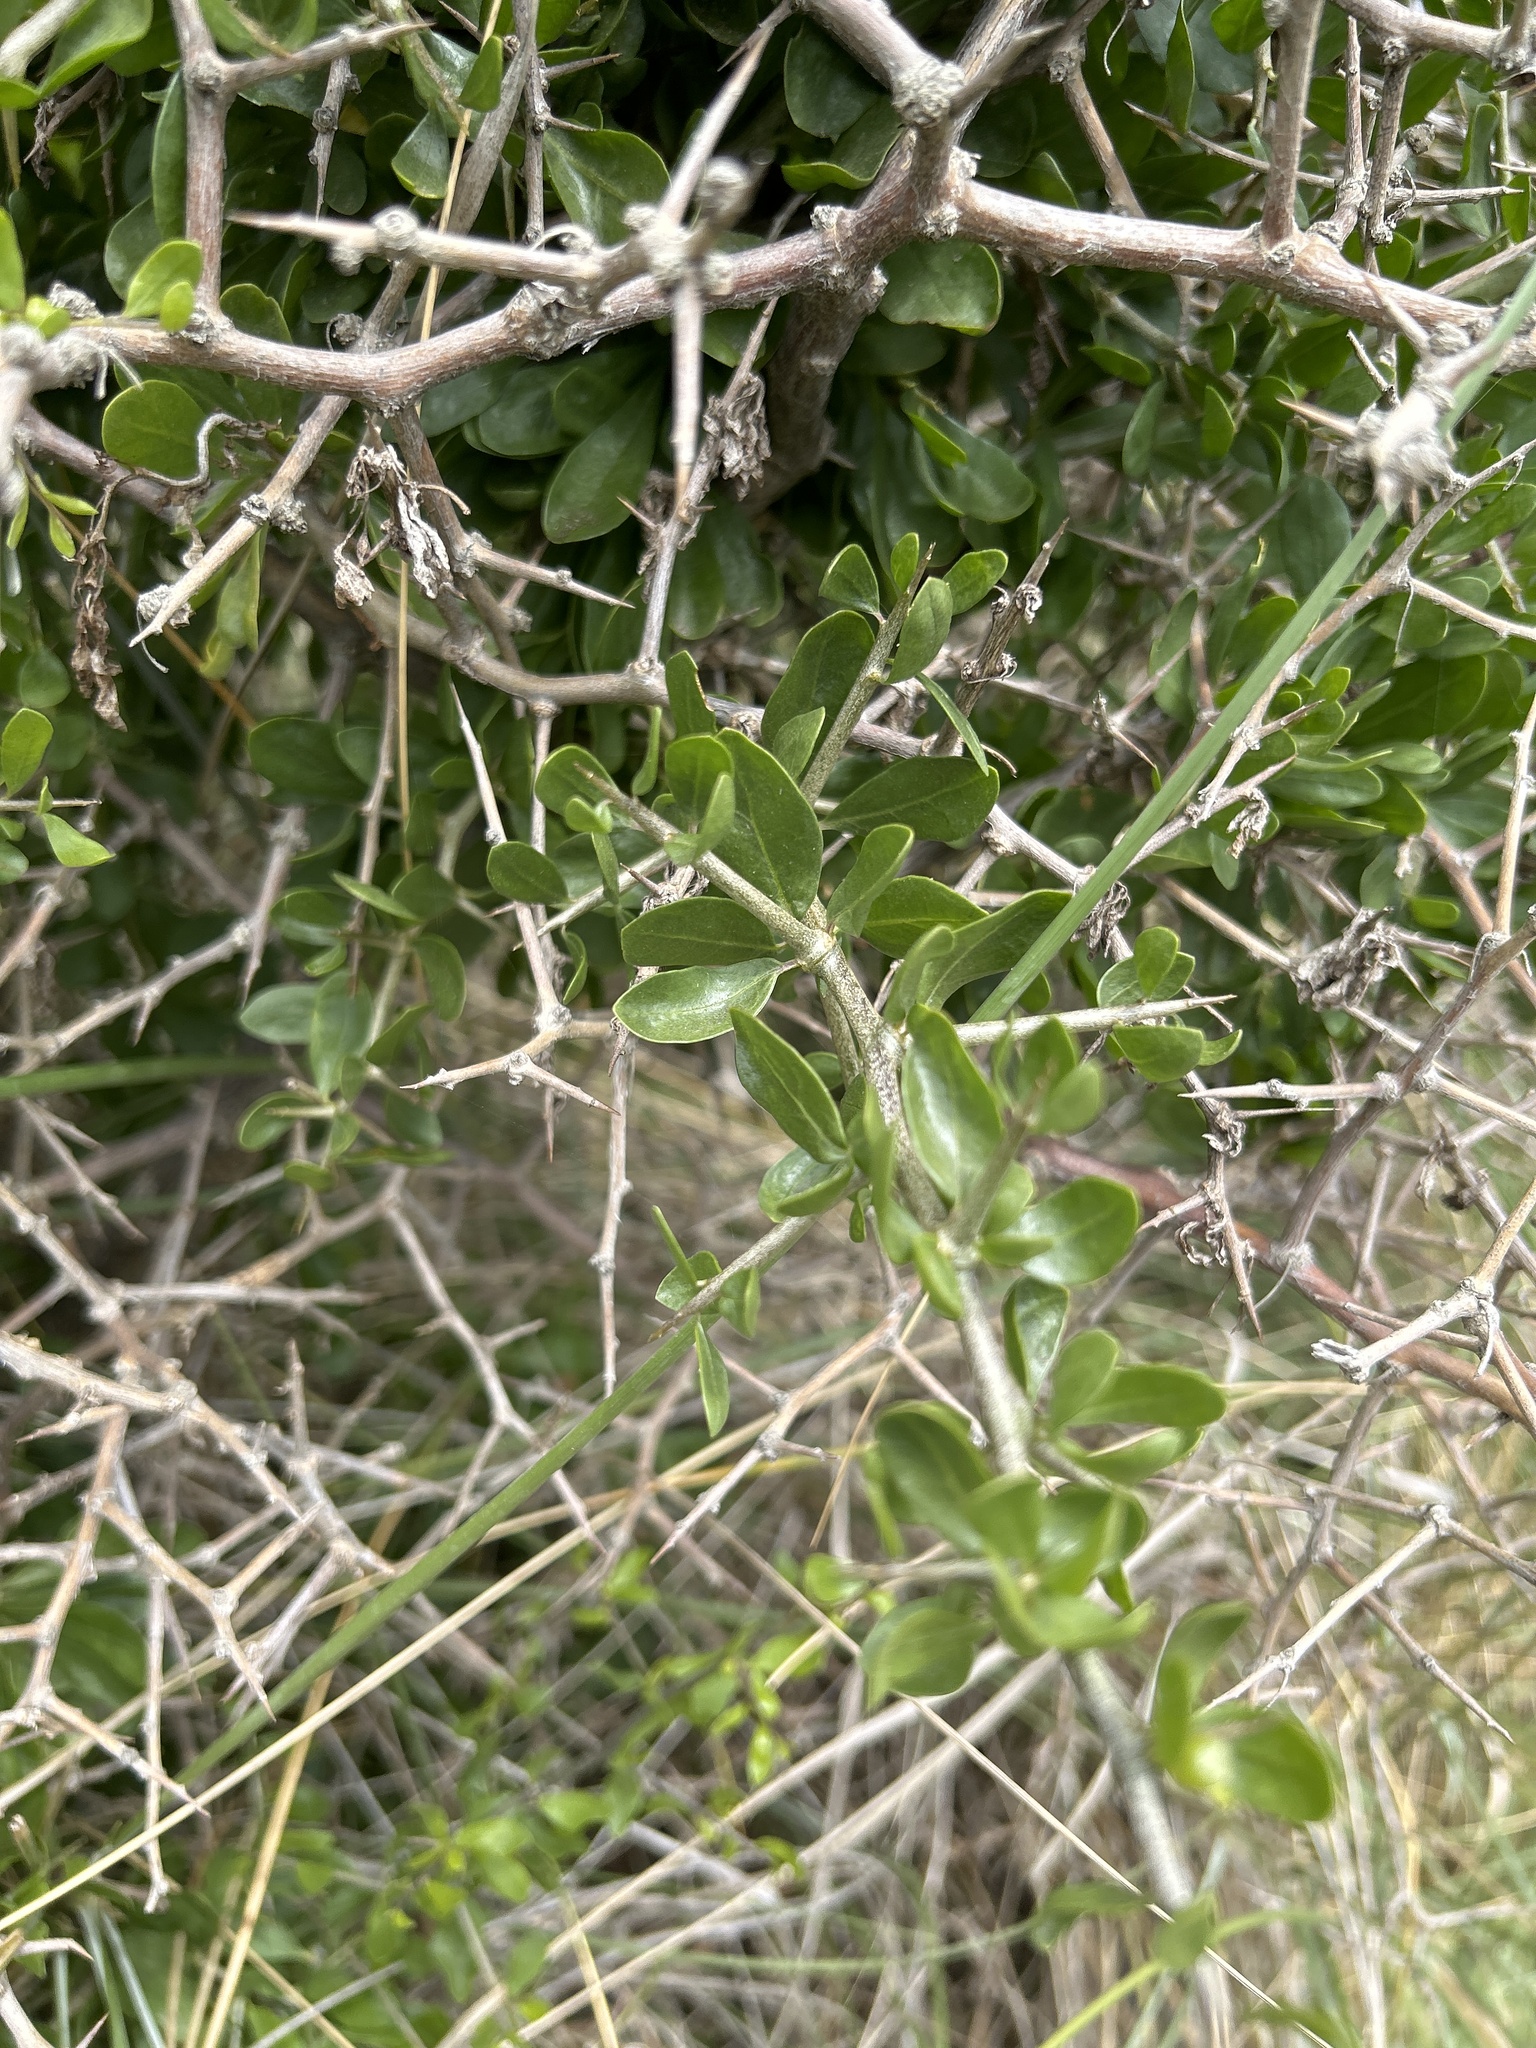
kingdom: Plantae
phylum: Tracheophyta
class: Magnoliopsida
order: Solanales
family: Solanaceae
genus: Lycium
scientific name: Lycium ferocissimum
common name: African boxthorn
